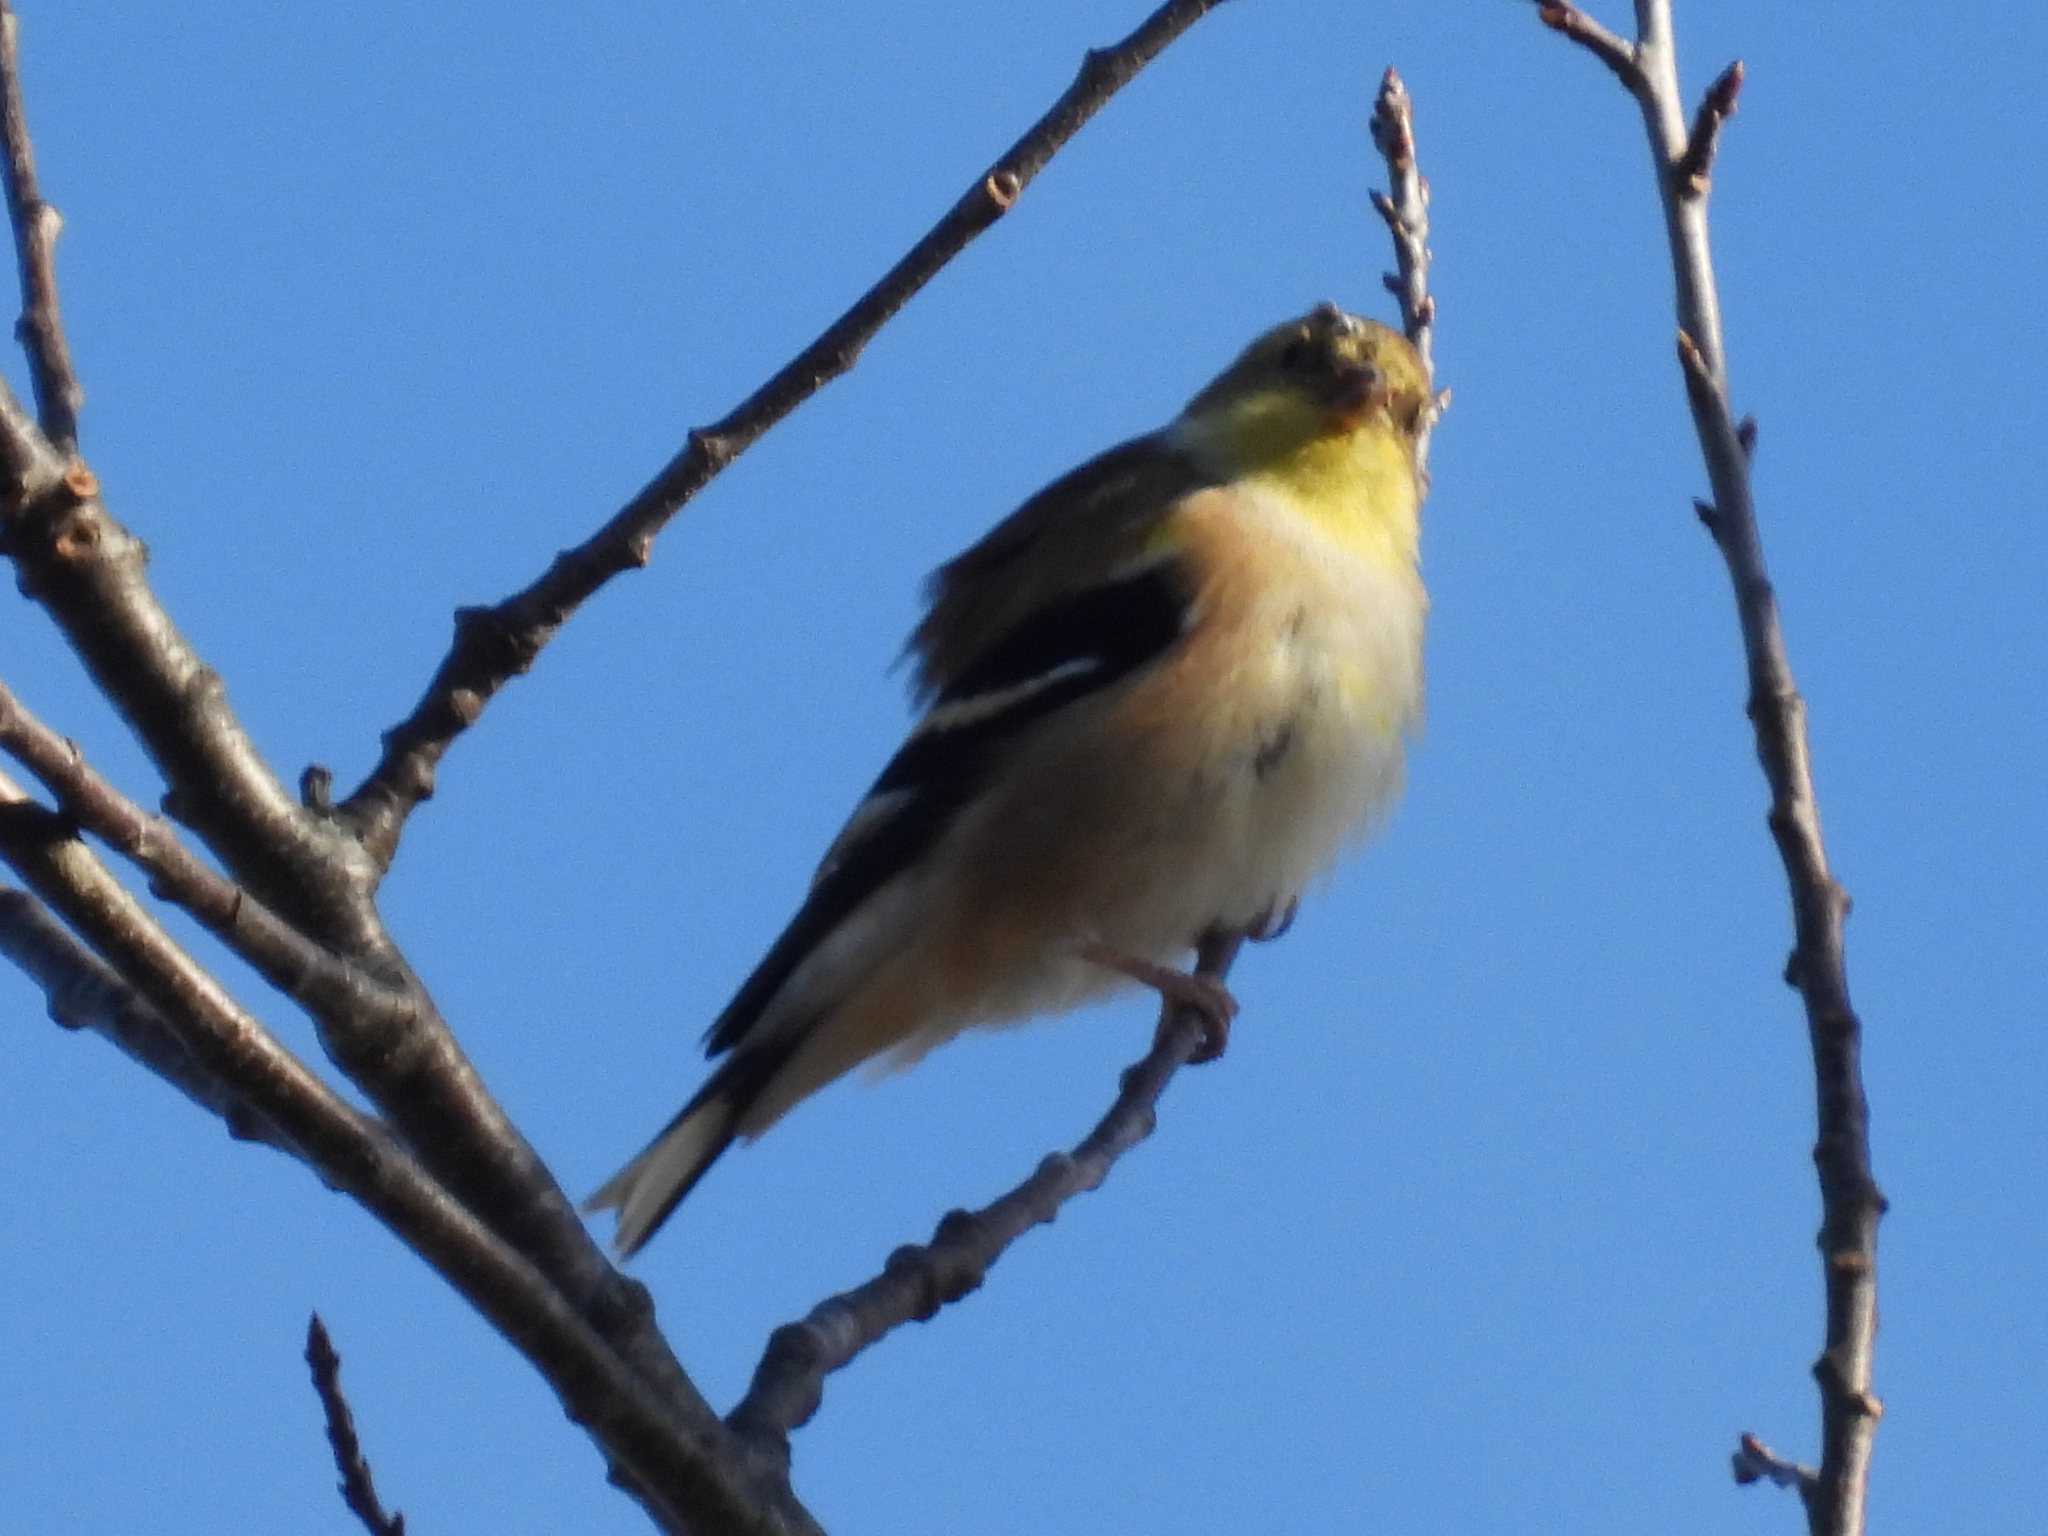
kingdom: Animalia
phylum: Chordata
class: Aves
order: Passeriformes
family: Fringillidae
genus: Spinus
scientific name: Spinus tristis
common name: American goldfinch
